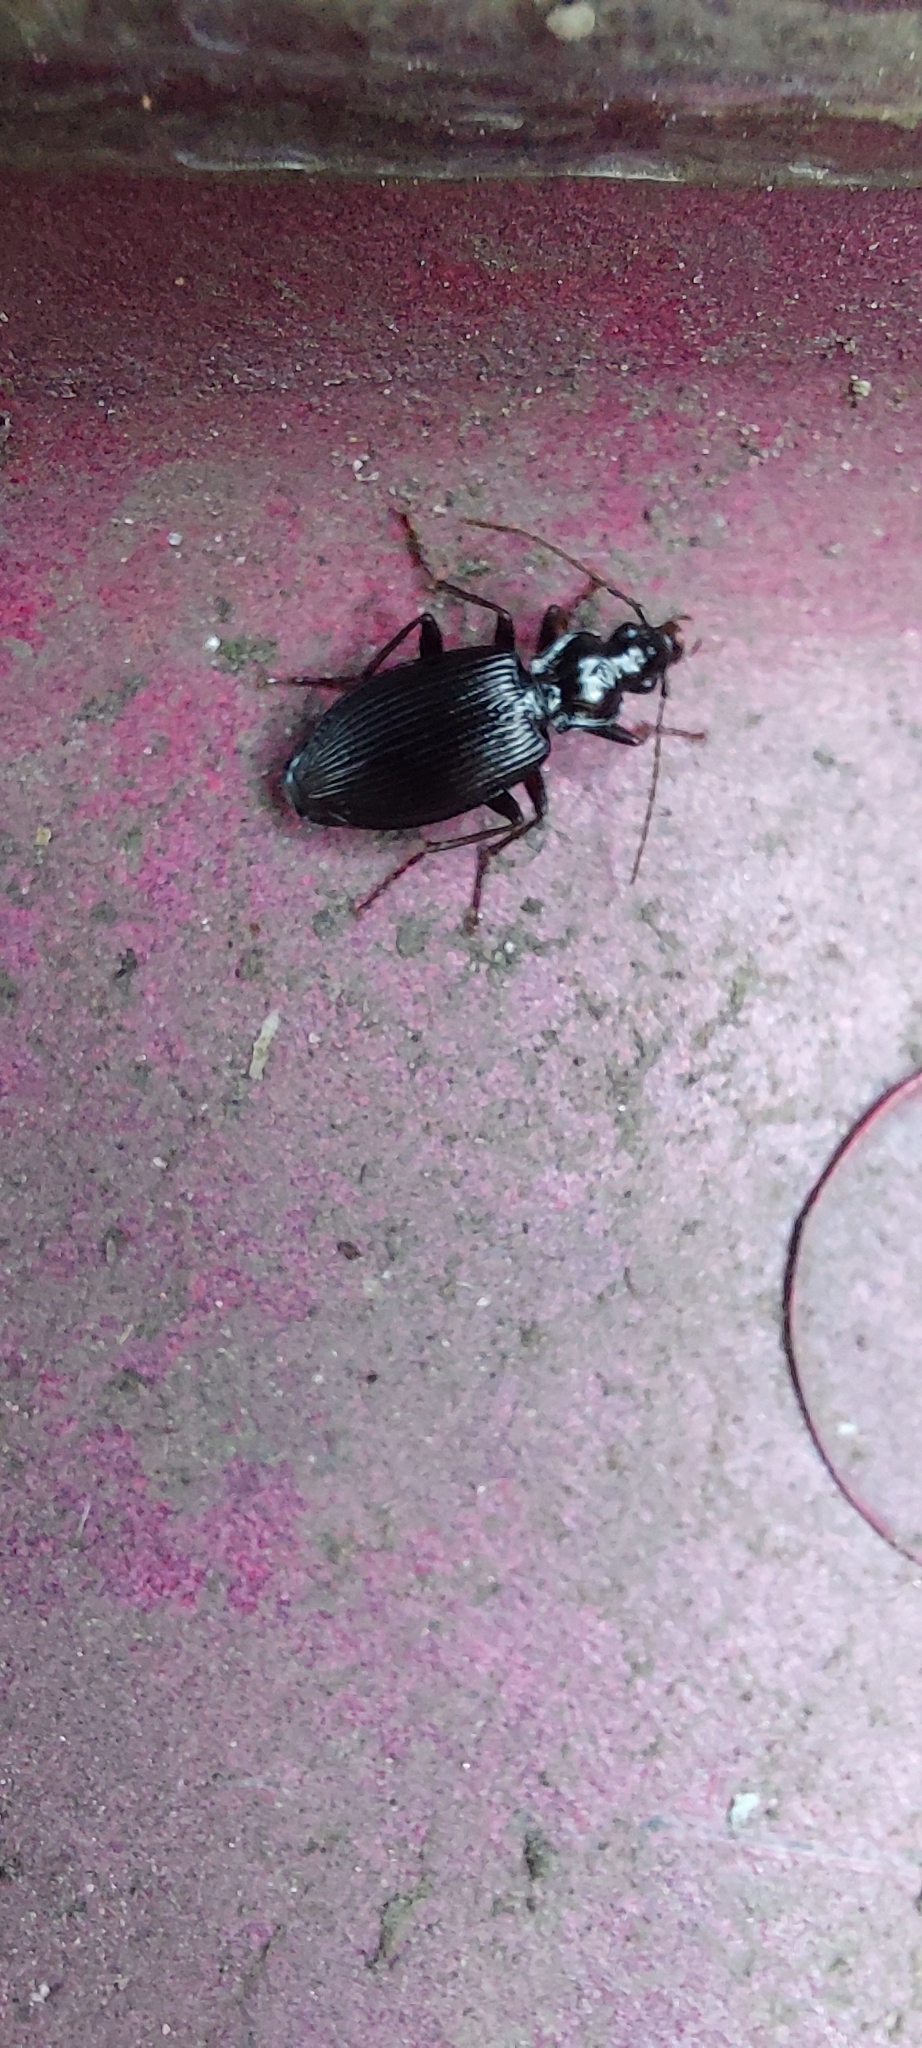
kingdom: Animalia
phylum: Arthropoda
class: Insecta
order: Coleoptera
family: Carabidae
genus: Platynus
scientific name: Platynus assimilis
